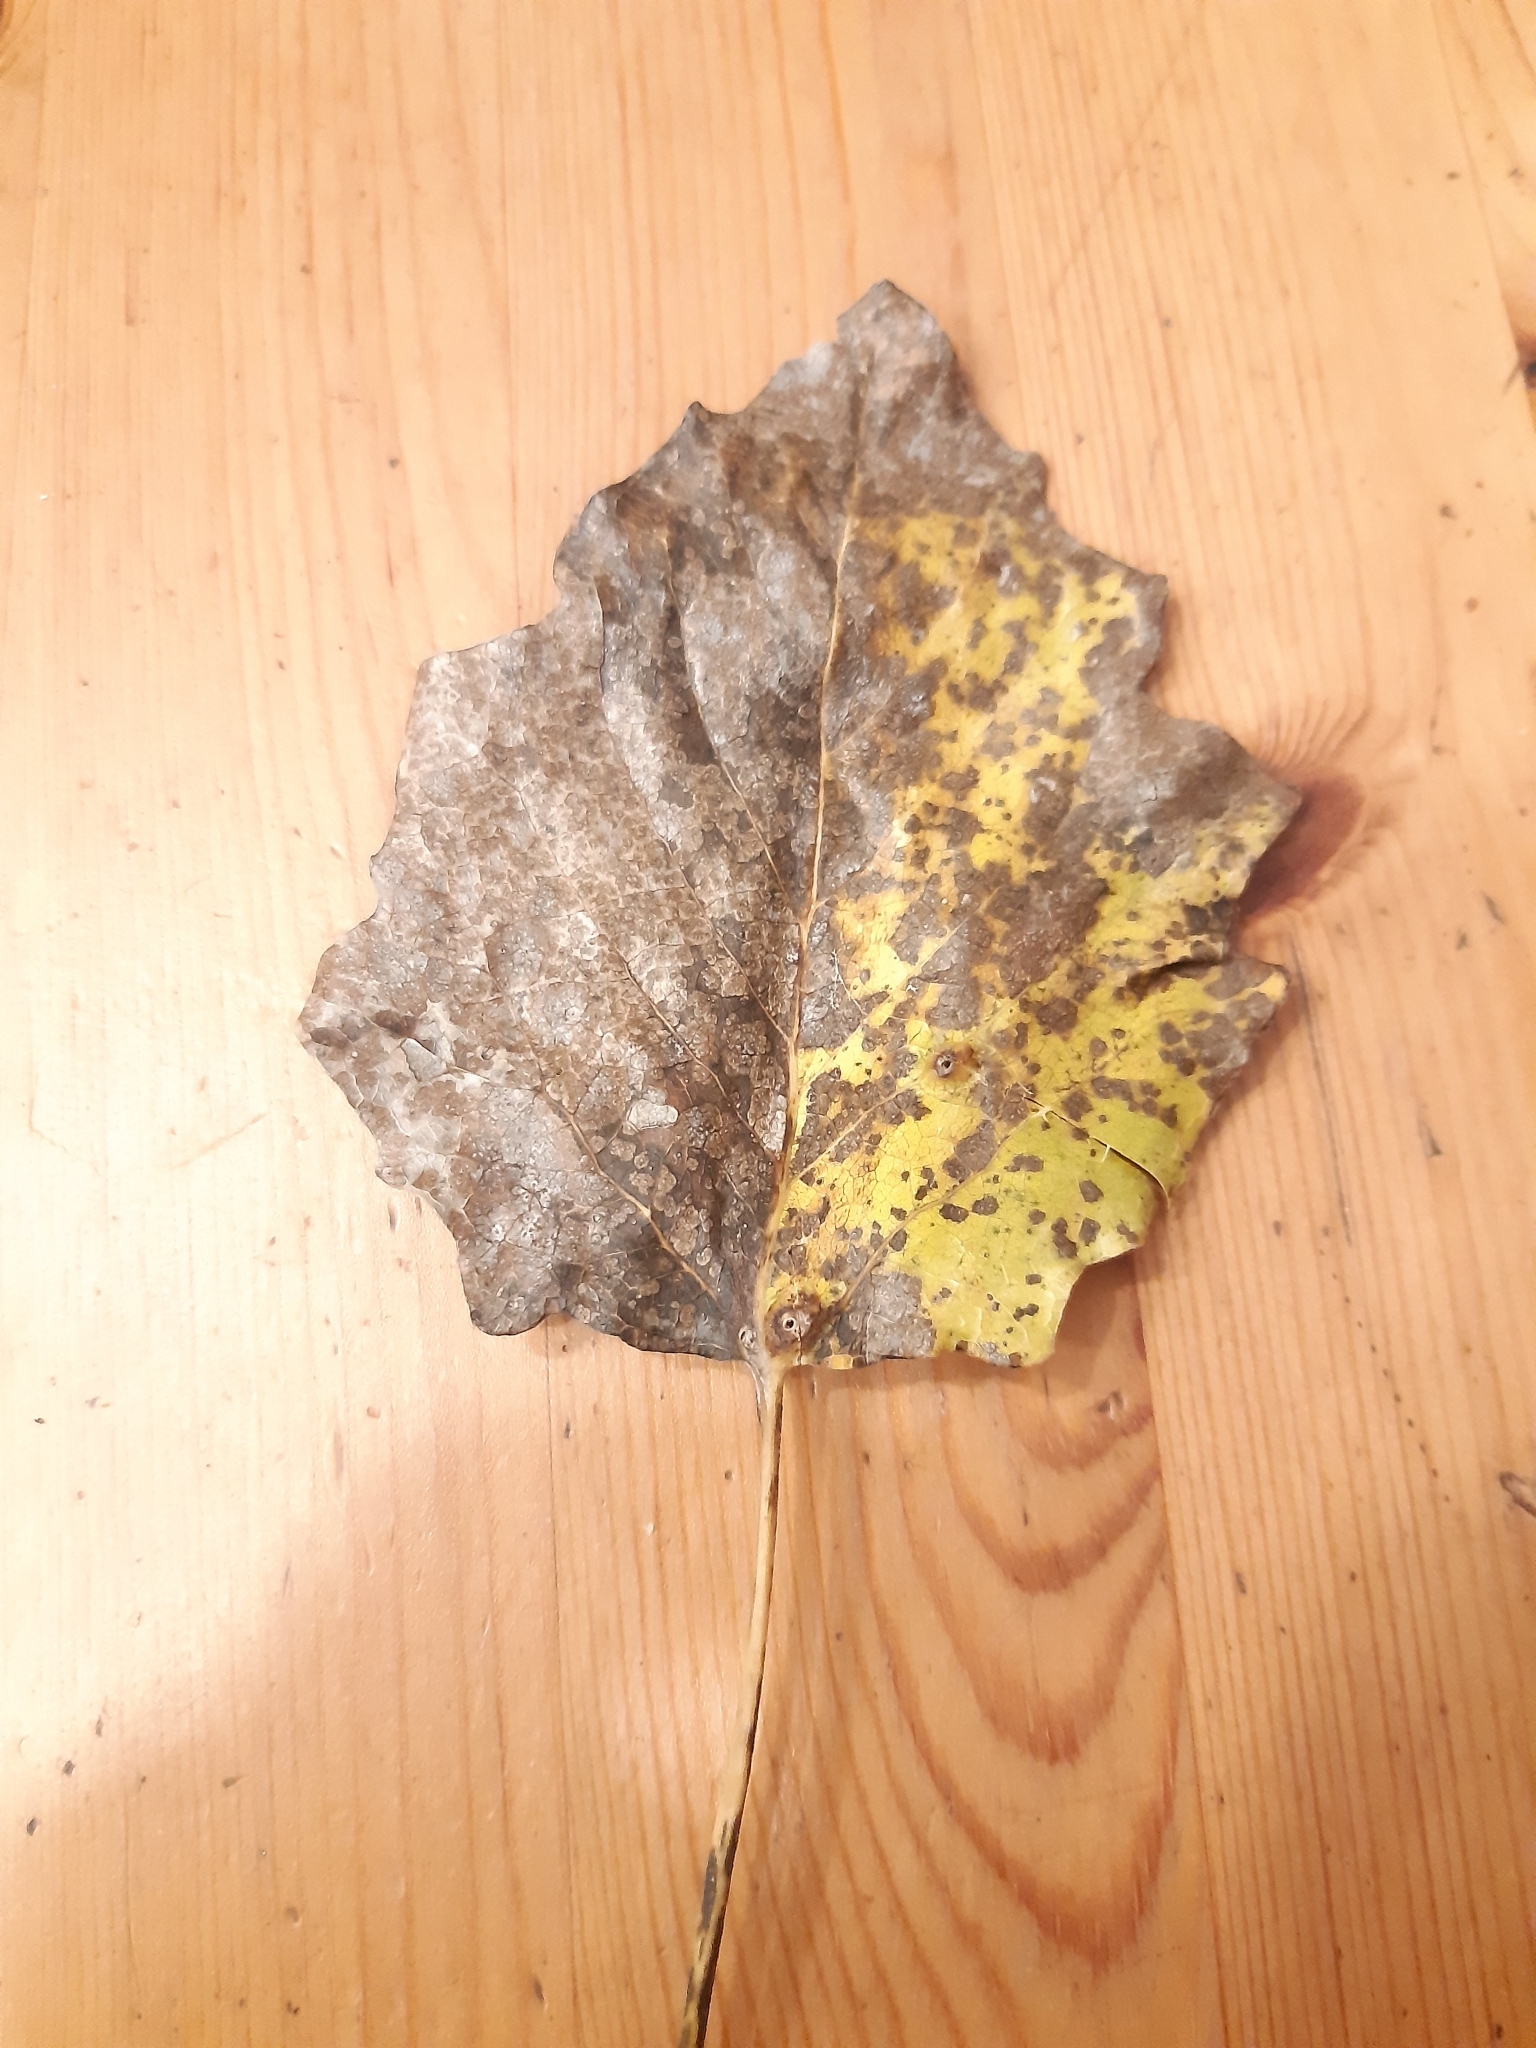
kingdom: Plantae
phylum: Tracheophyta
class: Magnoliopsida
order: Malpighiales
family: Salicaceae
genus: Populus
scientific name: Populus canescens
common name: Gray poplar
